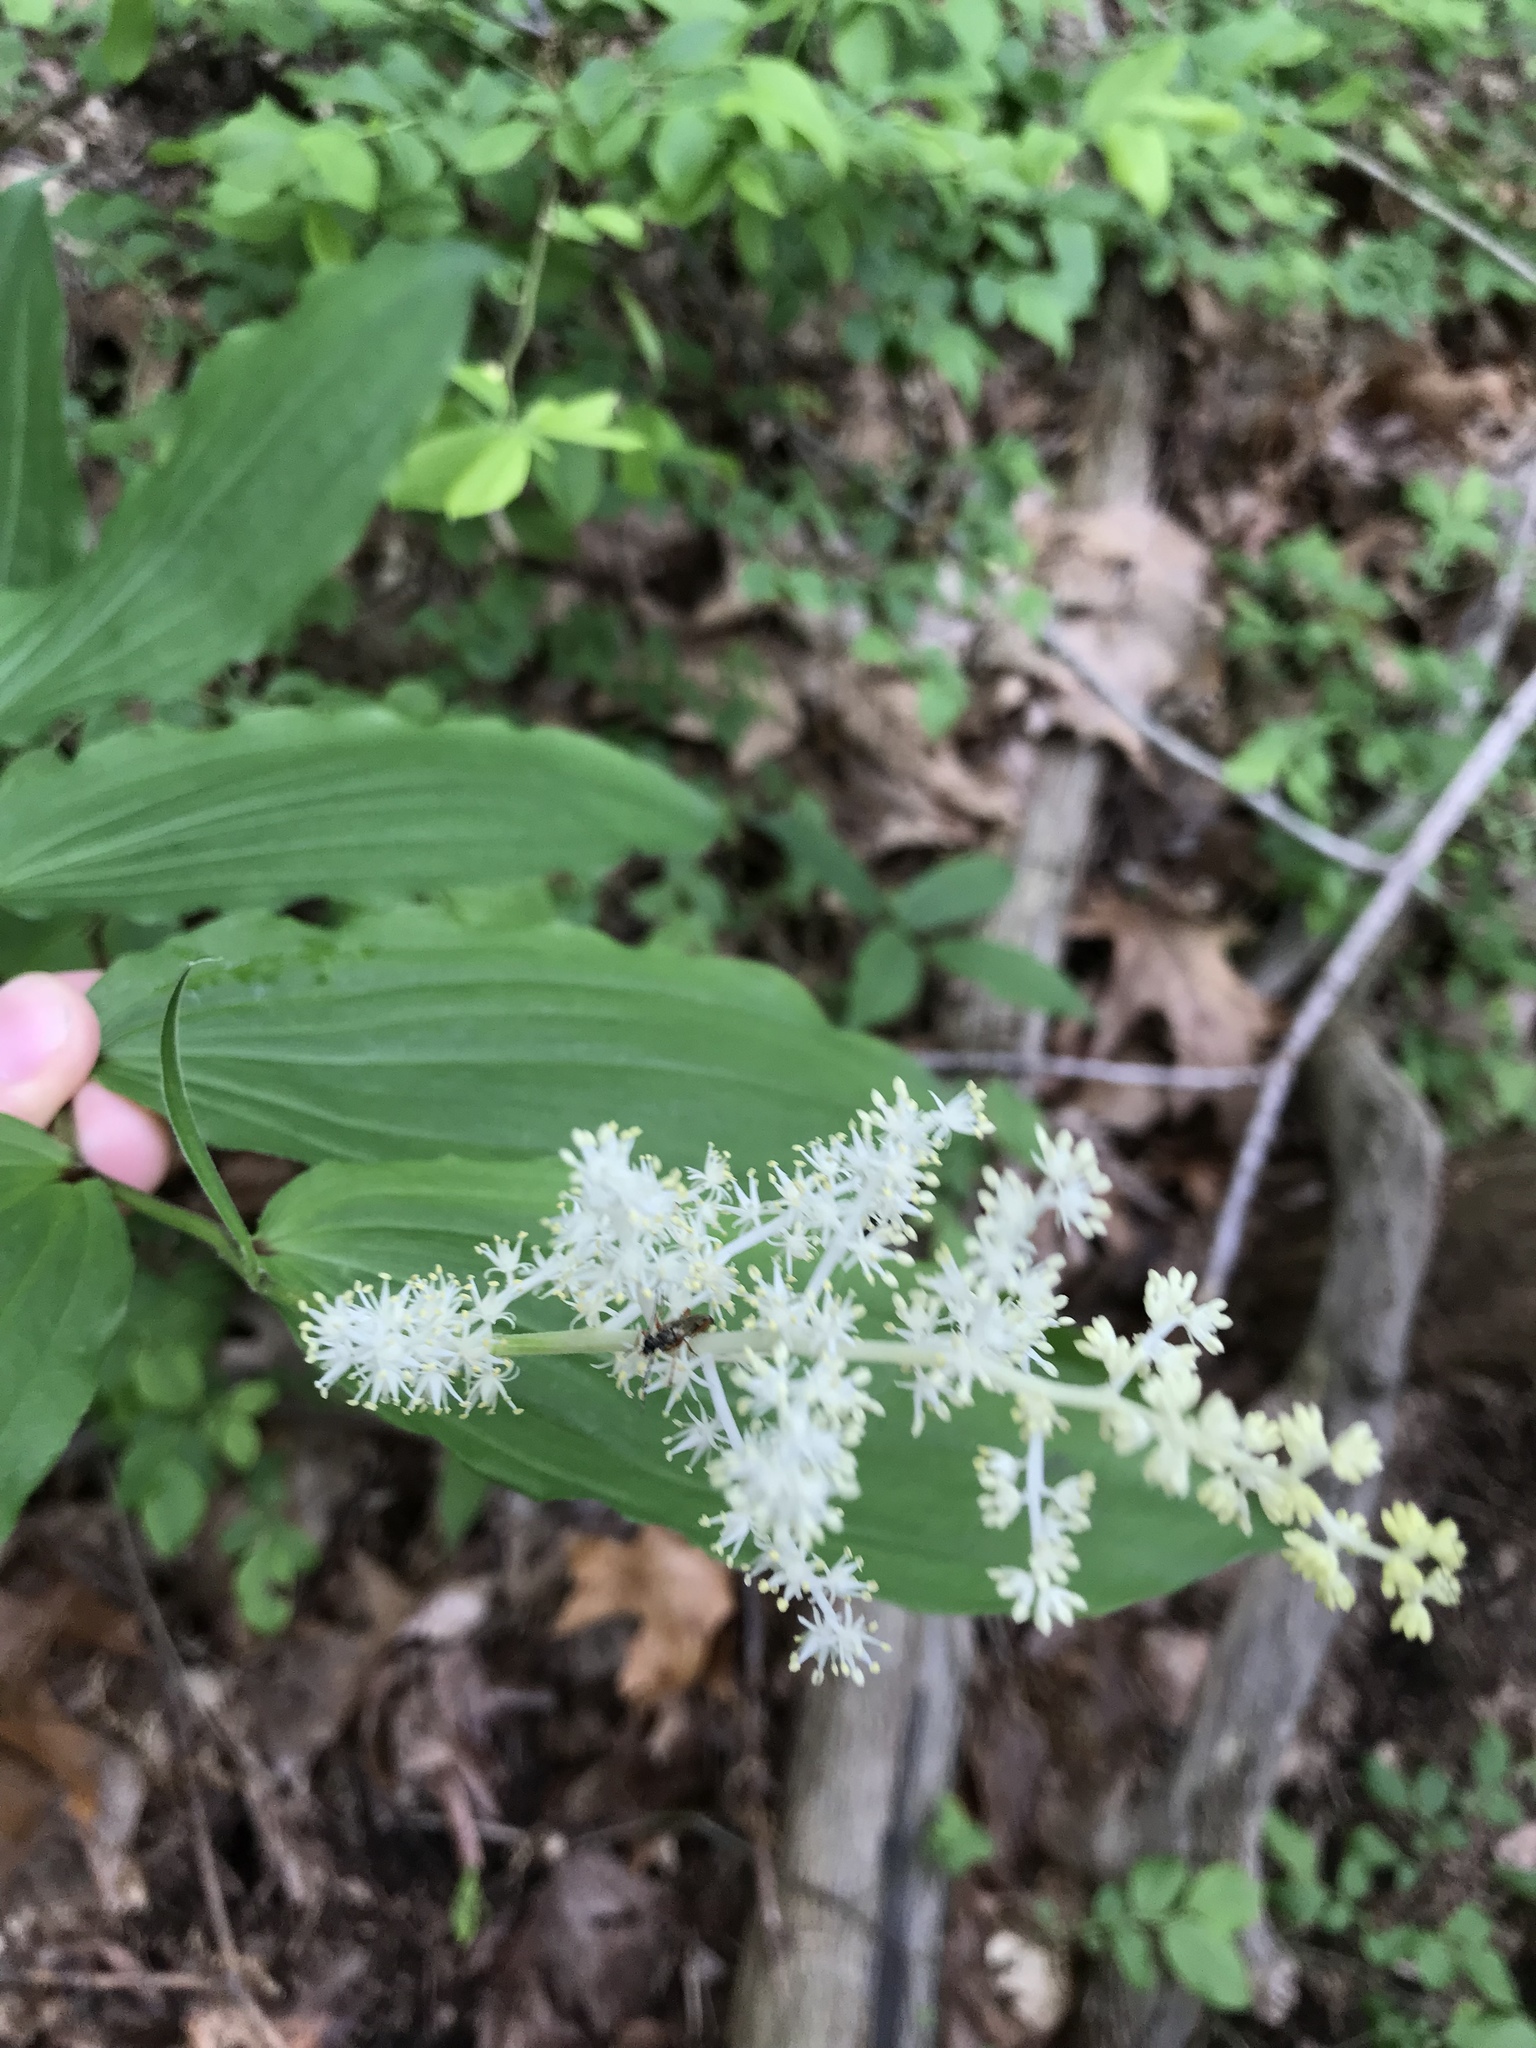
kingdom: Plantae
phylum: Tracheophyta
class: Liliopsida
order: Asparagales
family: Asparagaceae
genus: Maianthemum
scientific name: Maianthemum racemosum
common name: False spikenard
